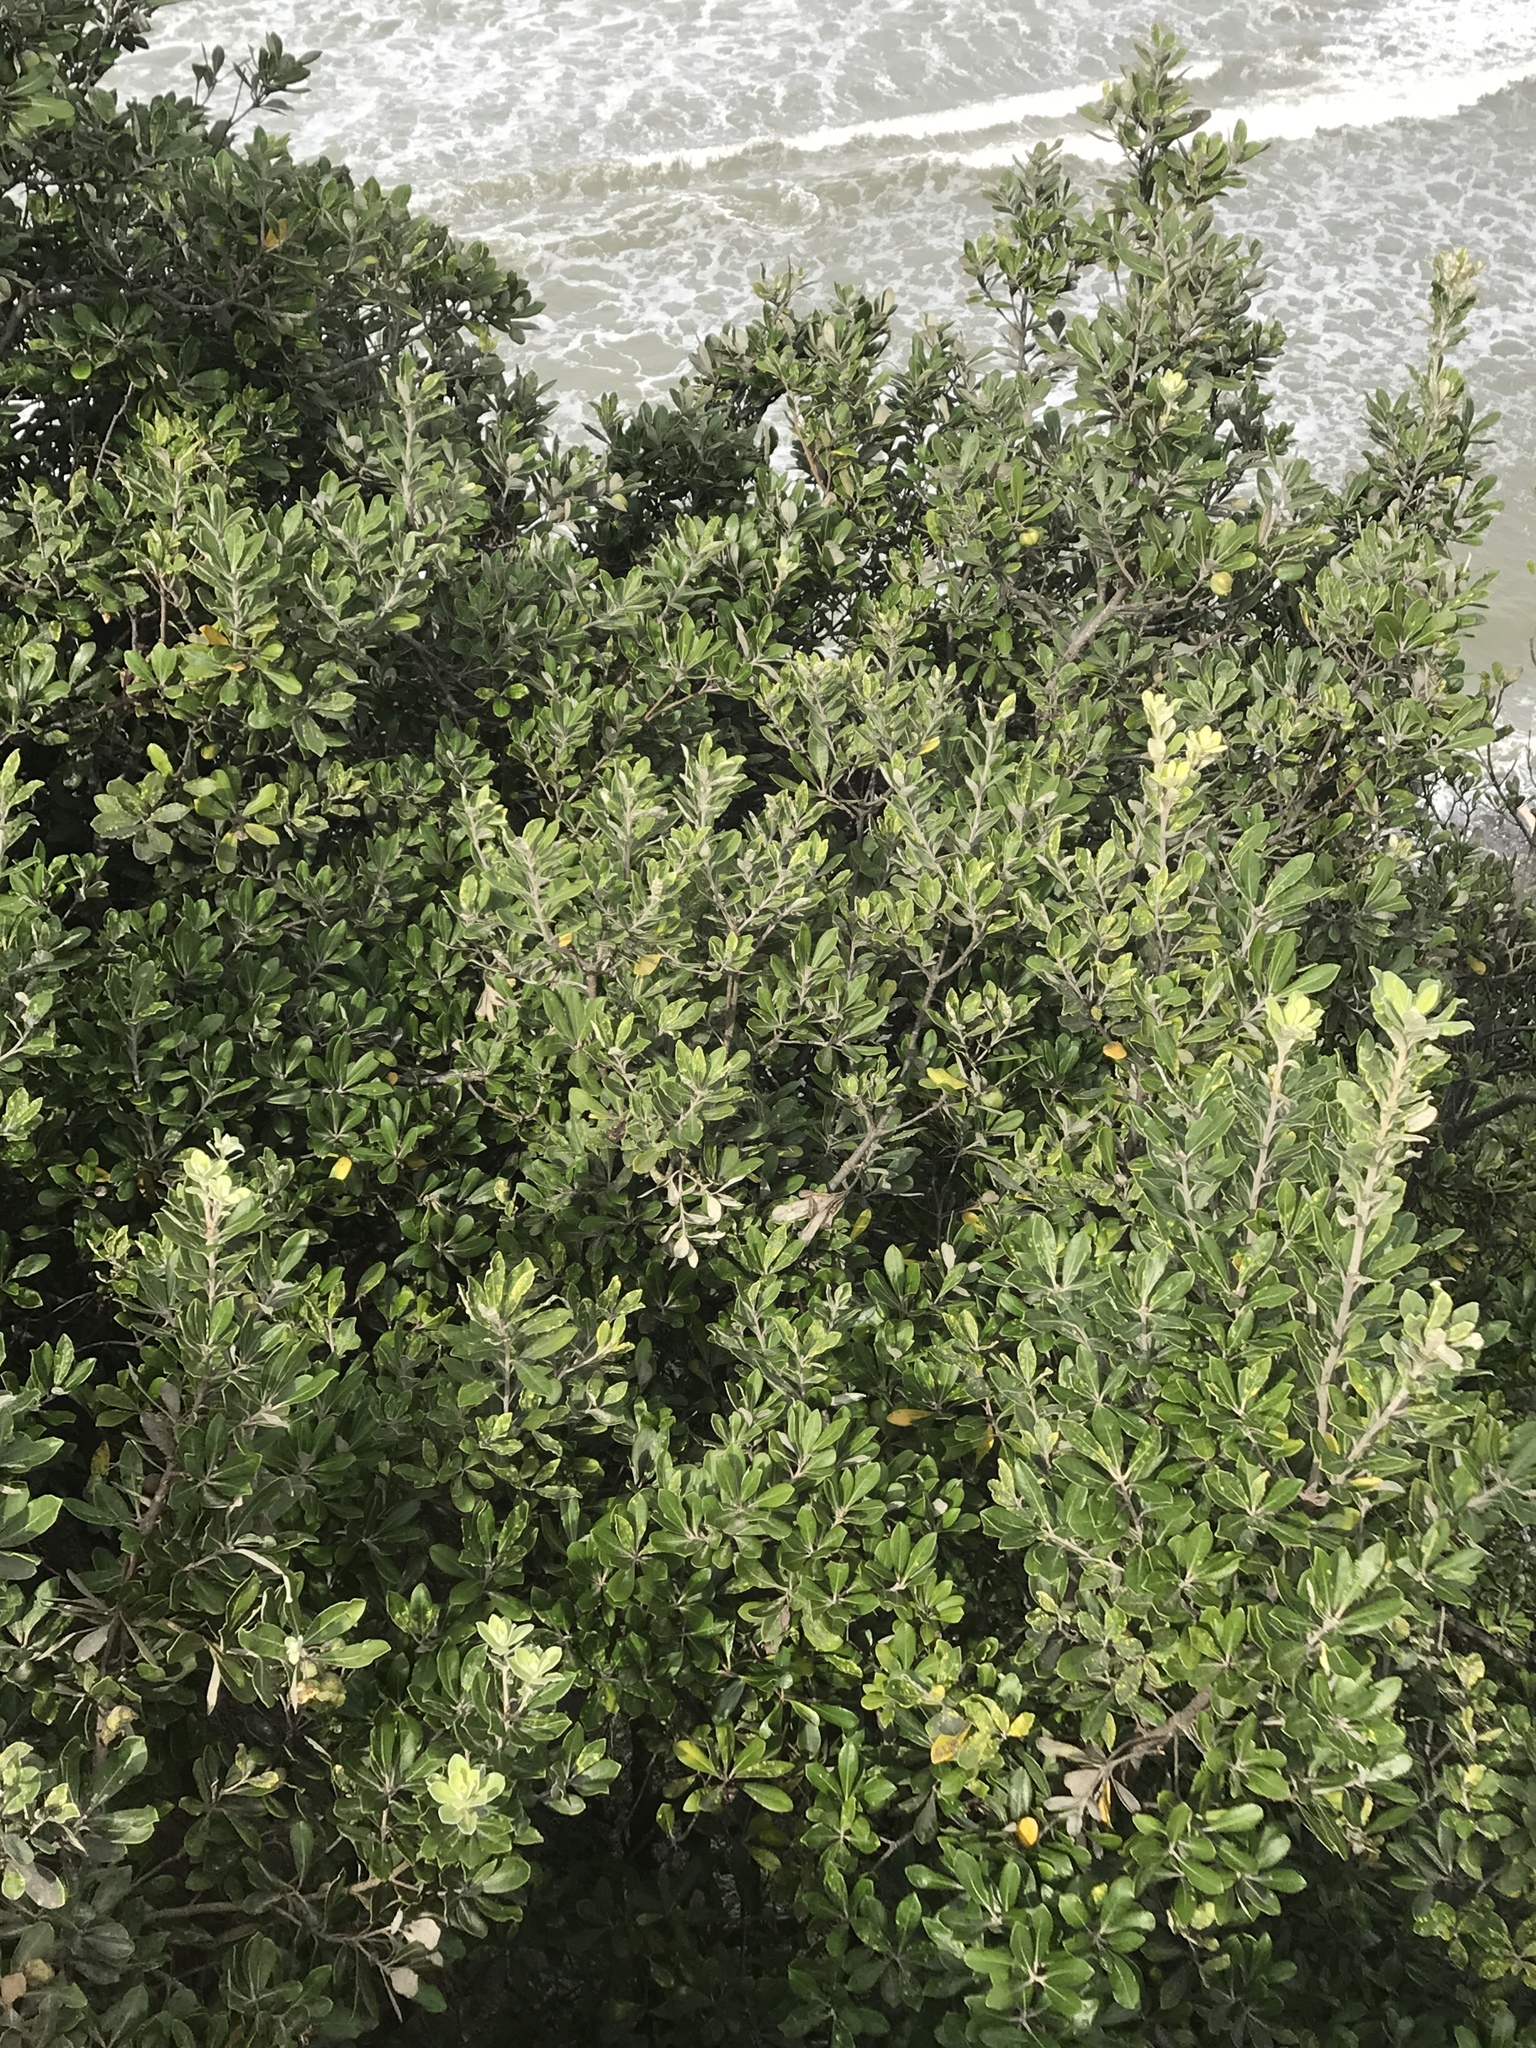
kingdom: Plantae
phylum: Tracheophyta
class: Magnoliopsida
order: Apiales
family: Pittosporaceae
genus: Pittosporum
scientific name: Pittosporum crassifolium
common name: Karo
